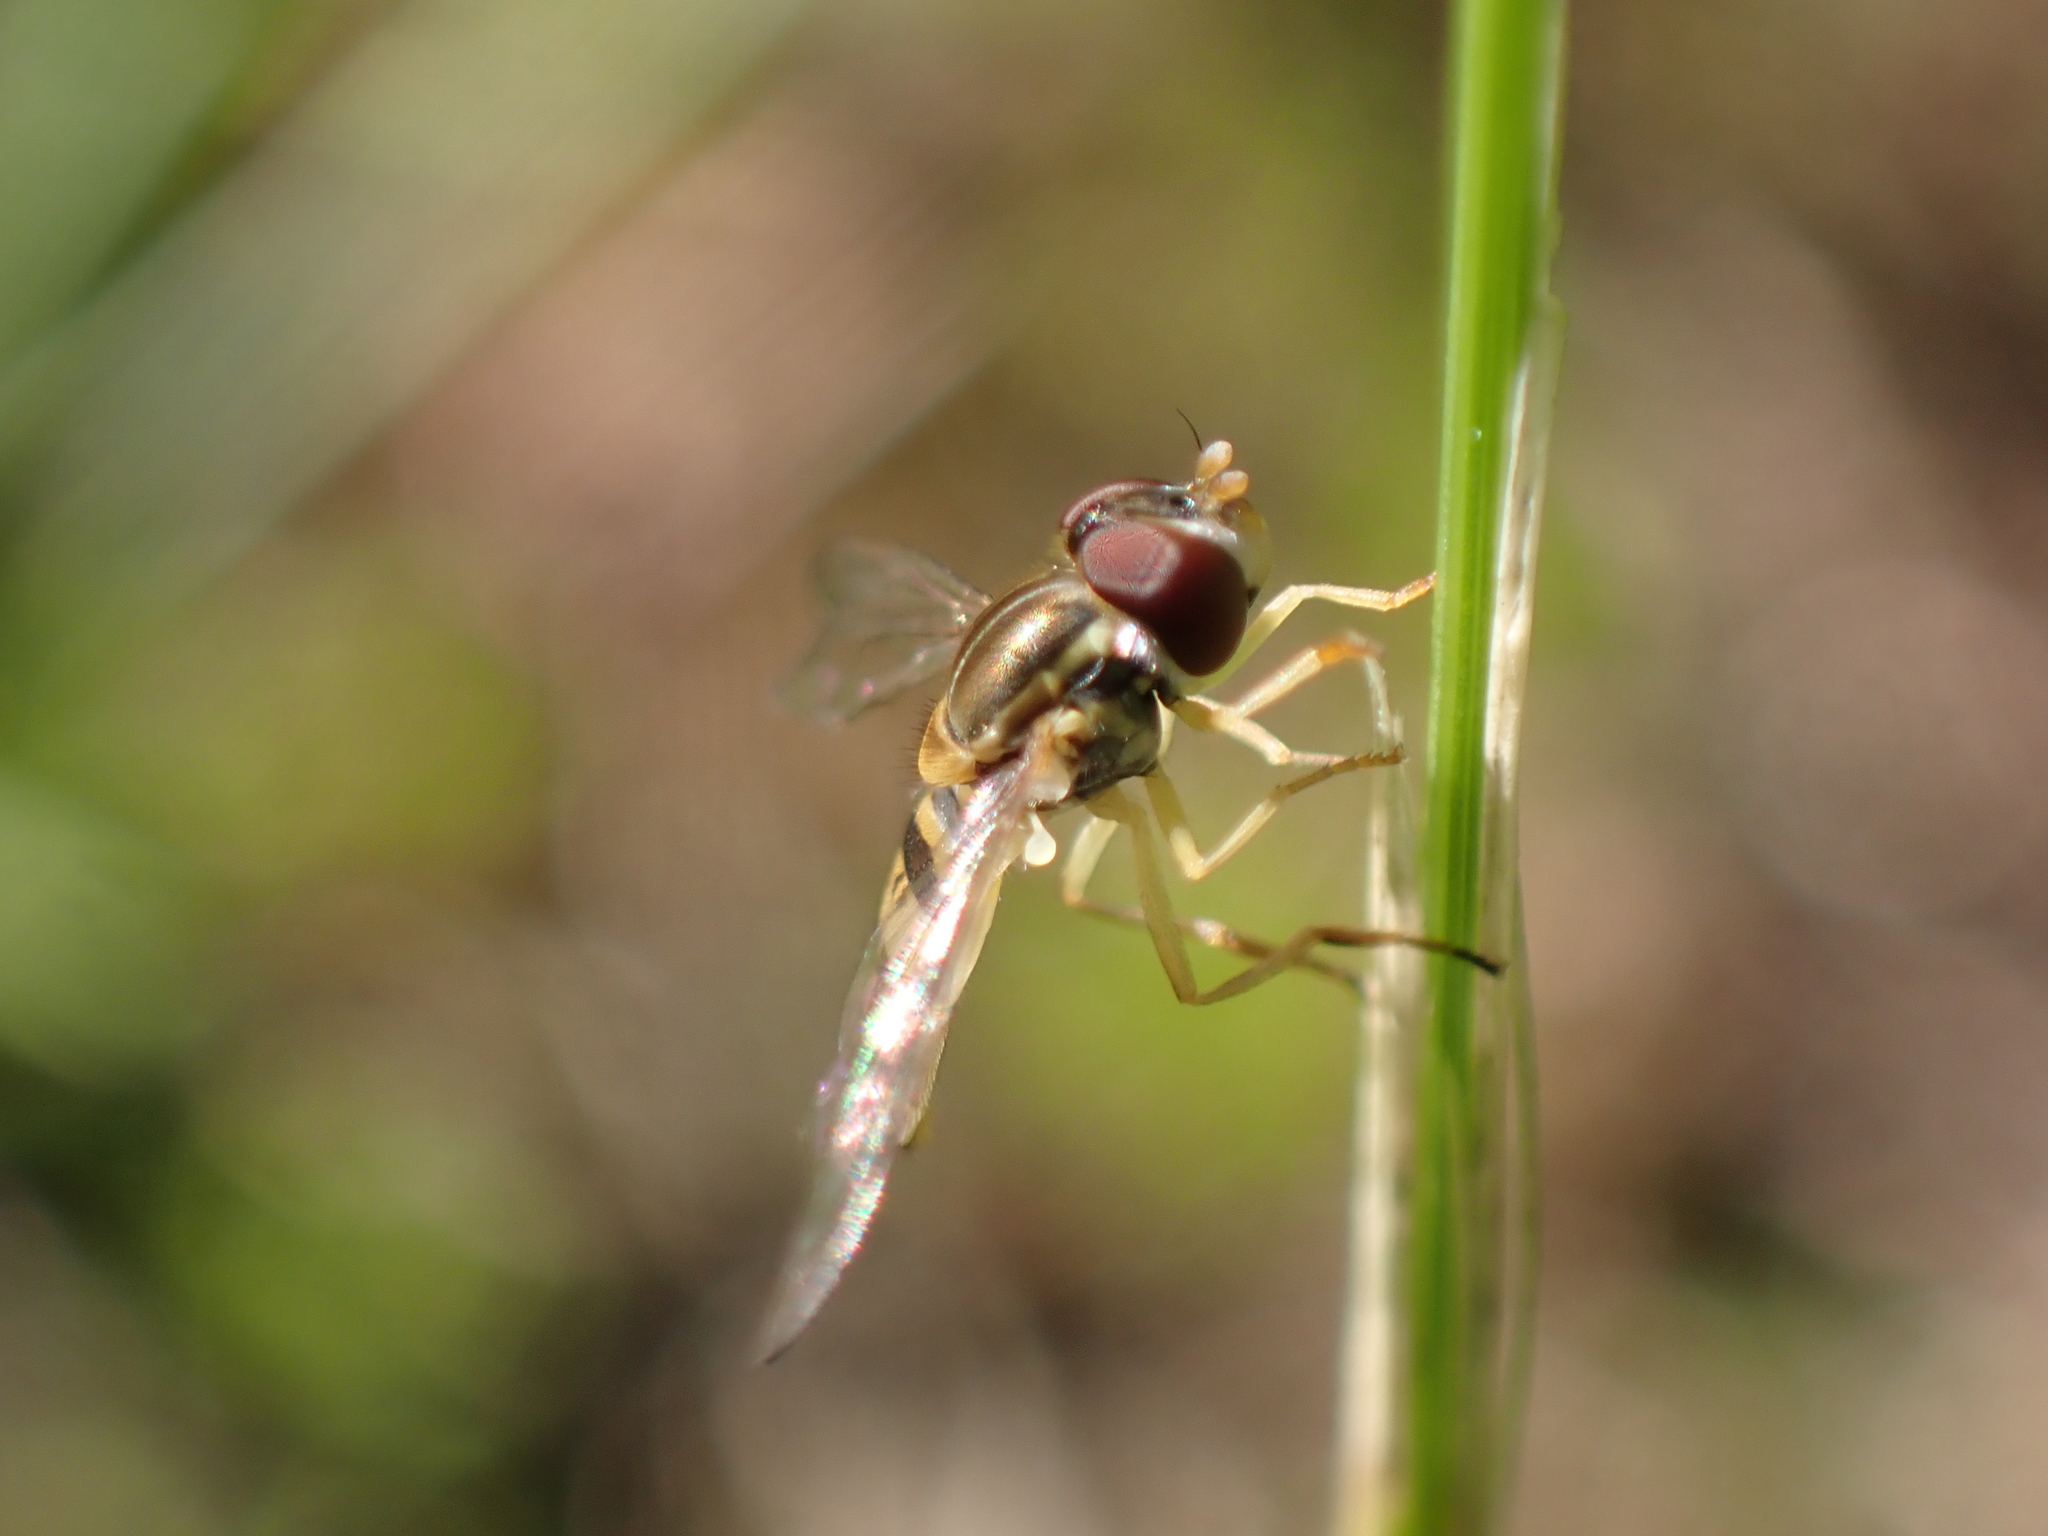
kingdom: Animalia
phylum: Arthropoda
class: Insecta
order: Diptera
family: Syrphidae
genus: Toxomerus
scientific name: Toxomerus marginatus
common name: Syrphid fly
